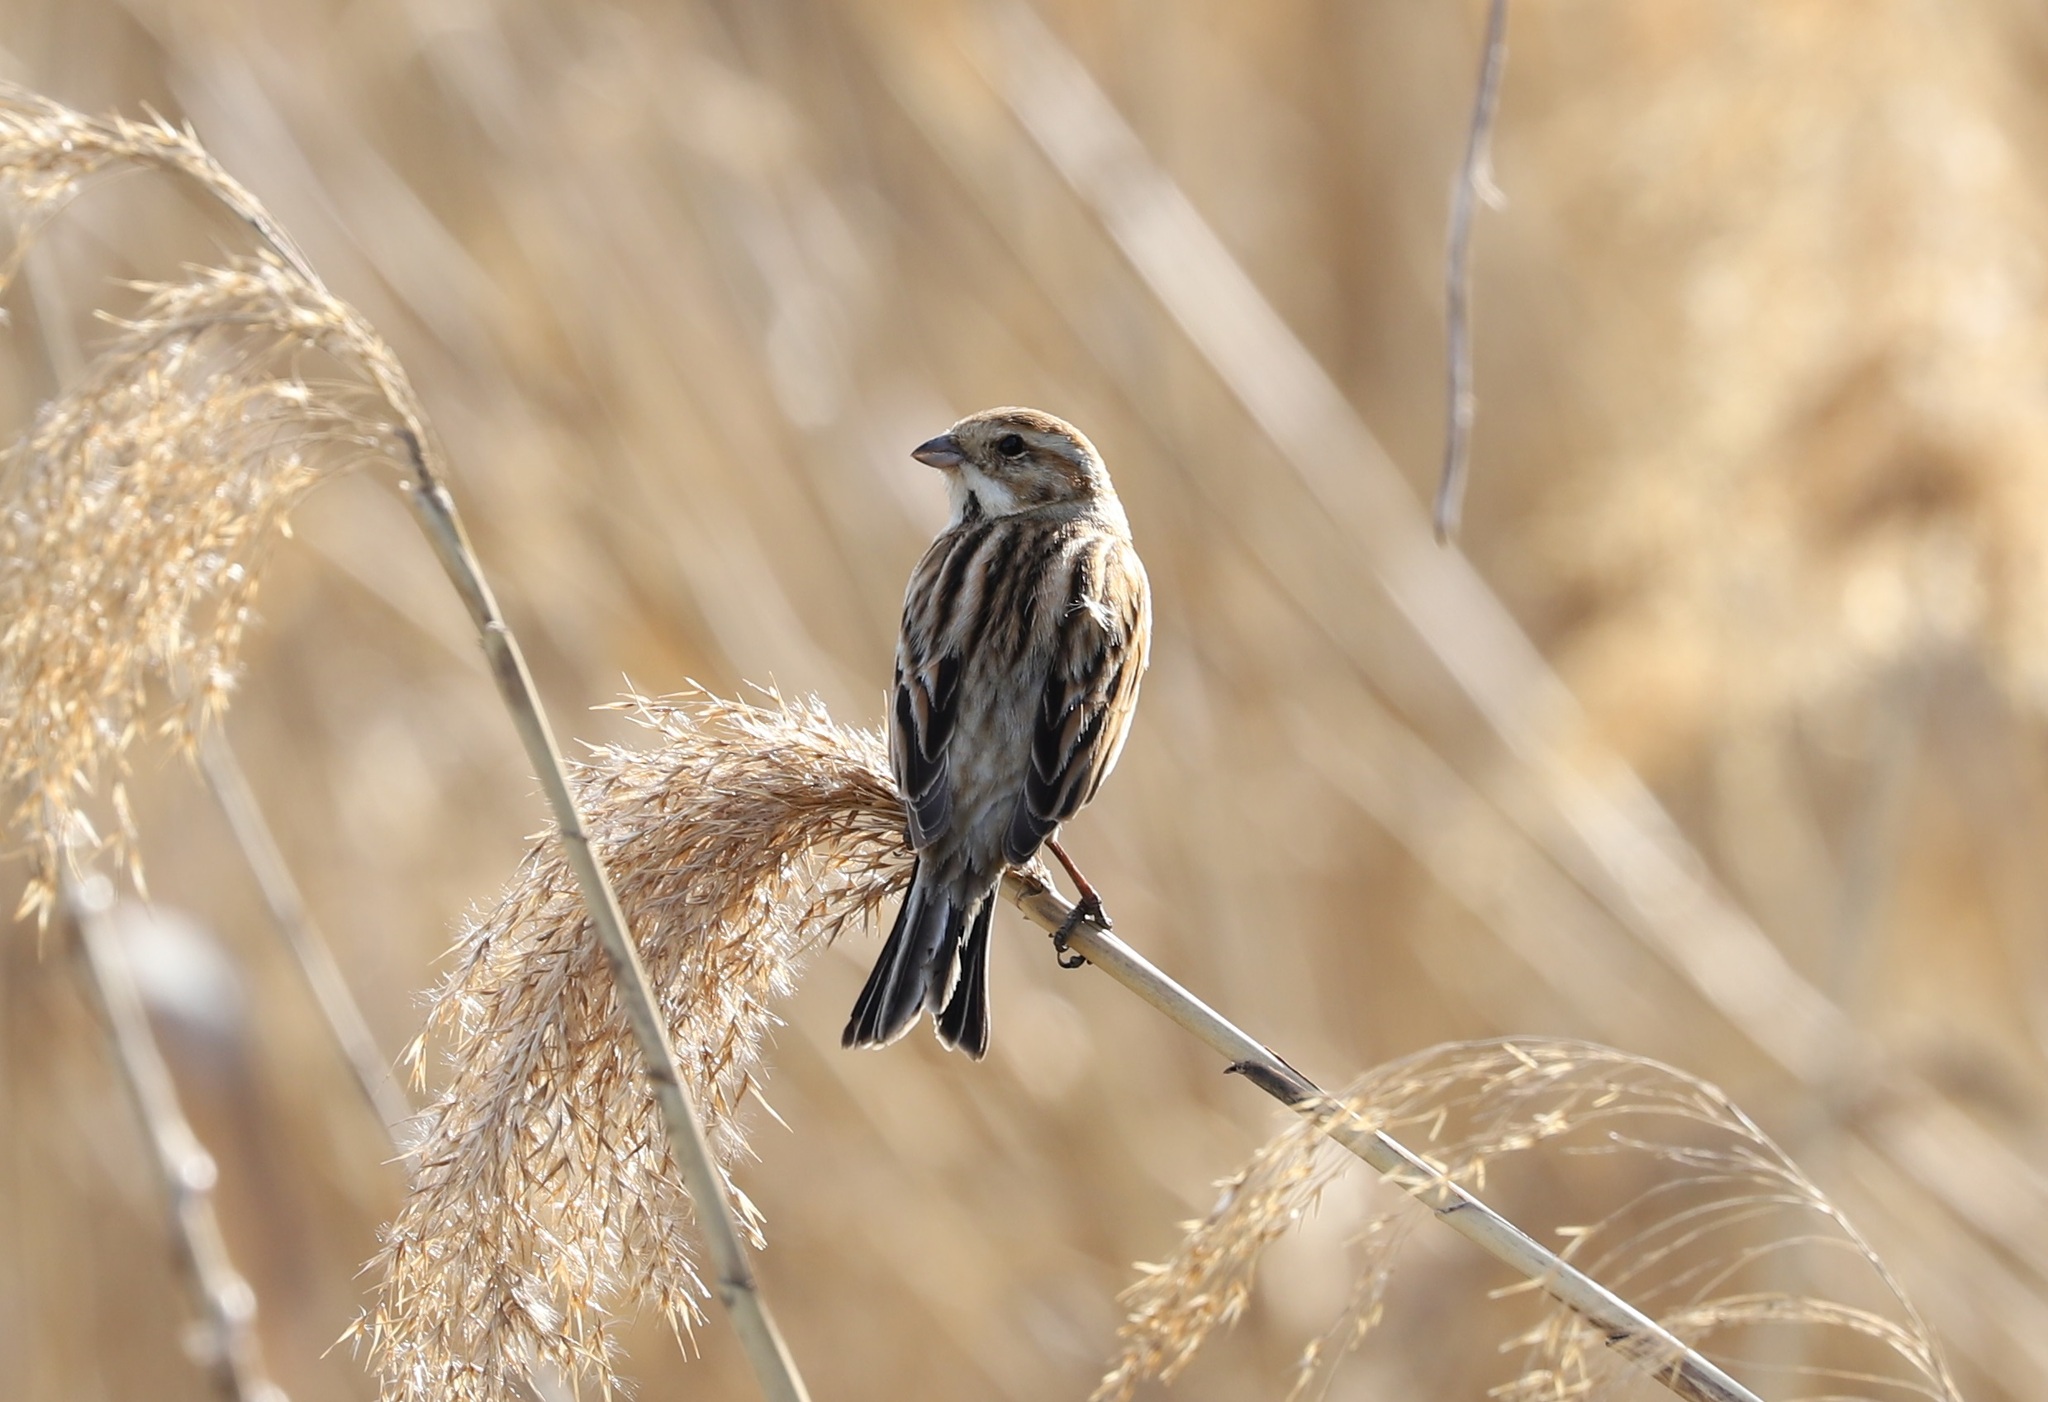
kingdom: Animalia
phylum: Chordata
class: Aves
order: Passeriformes
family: Emberizidae
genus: Emberiza
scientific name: Emberiza schoeniclus
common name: Reed bunting
